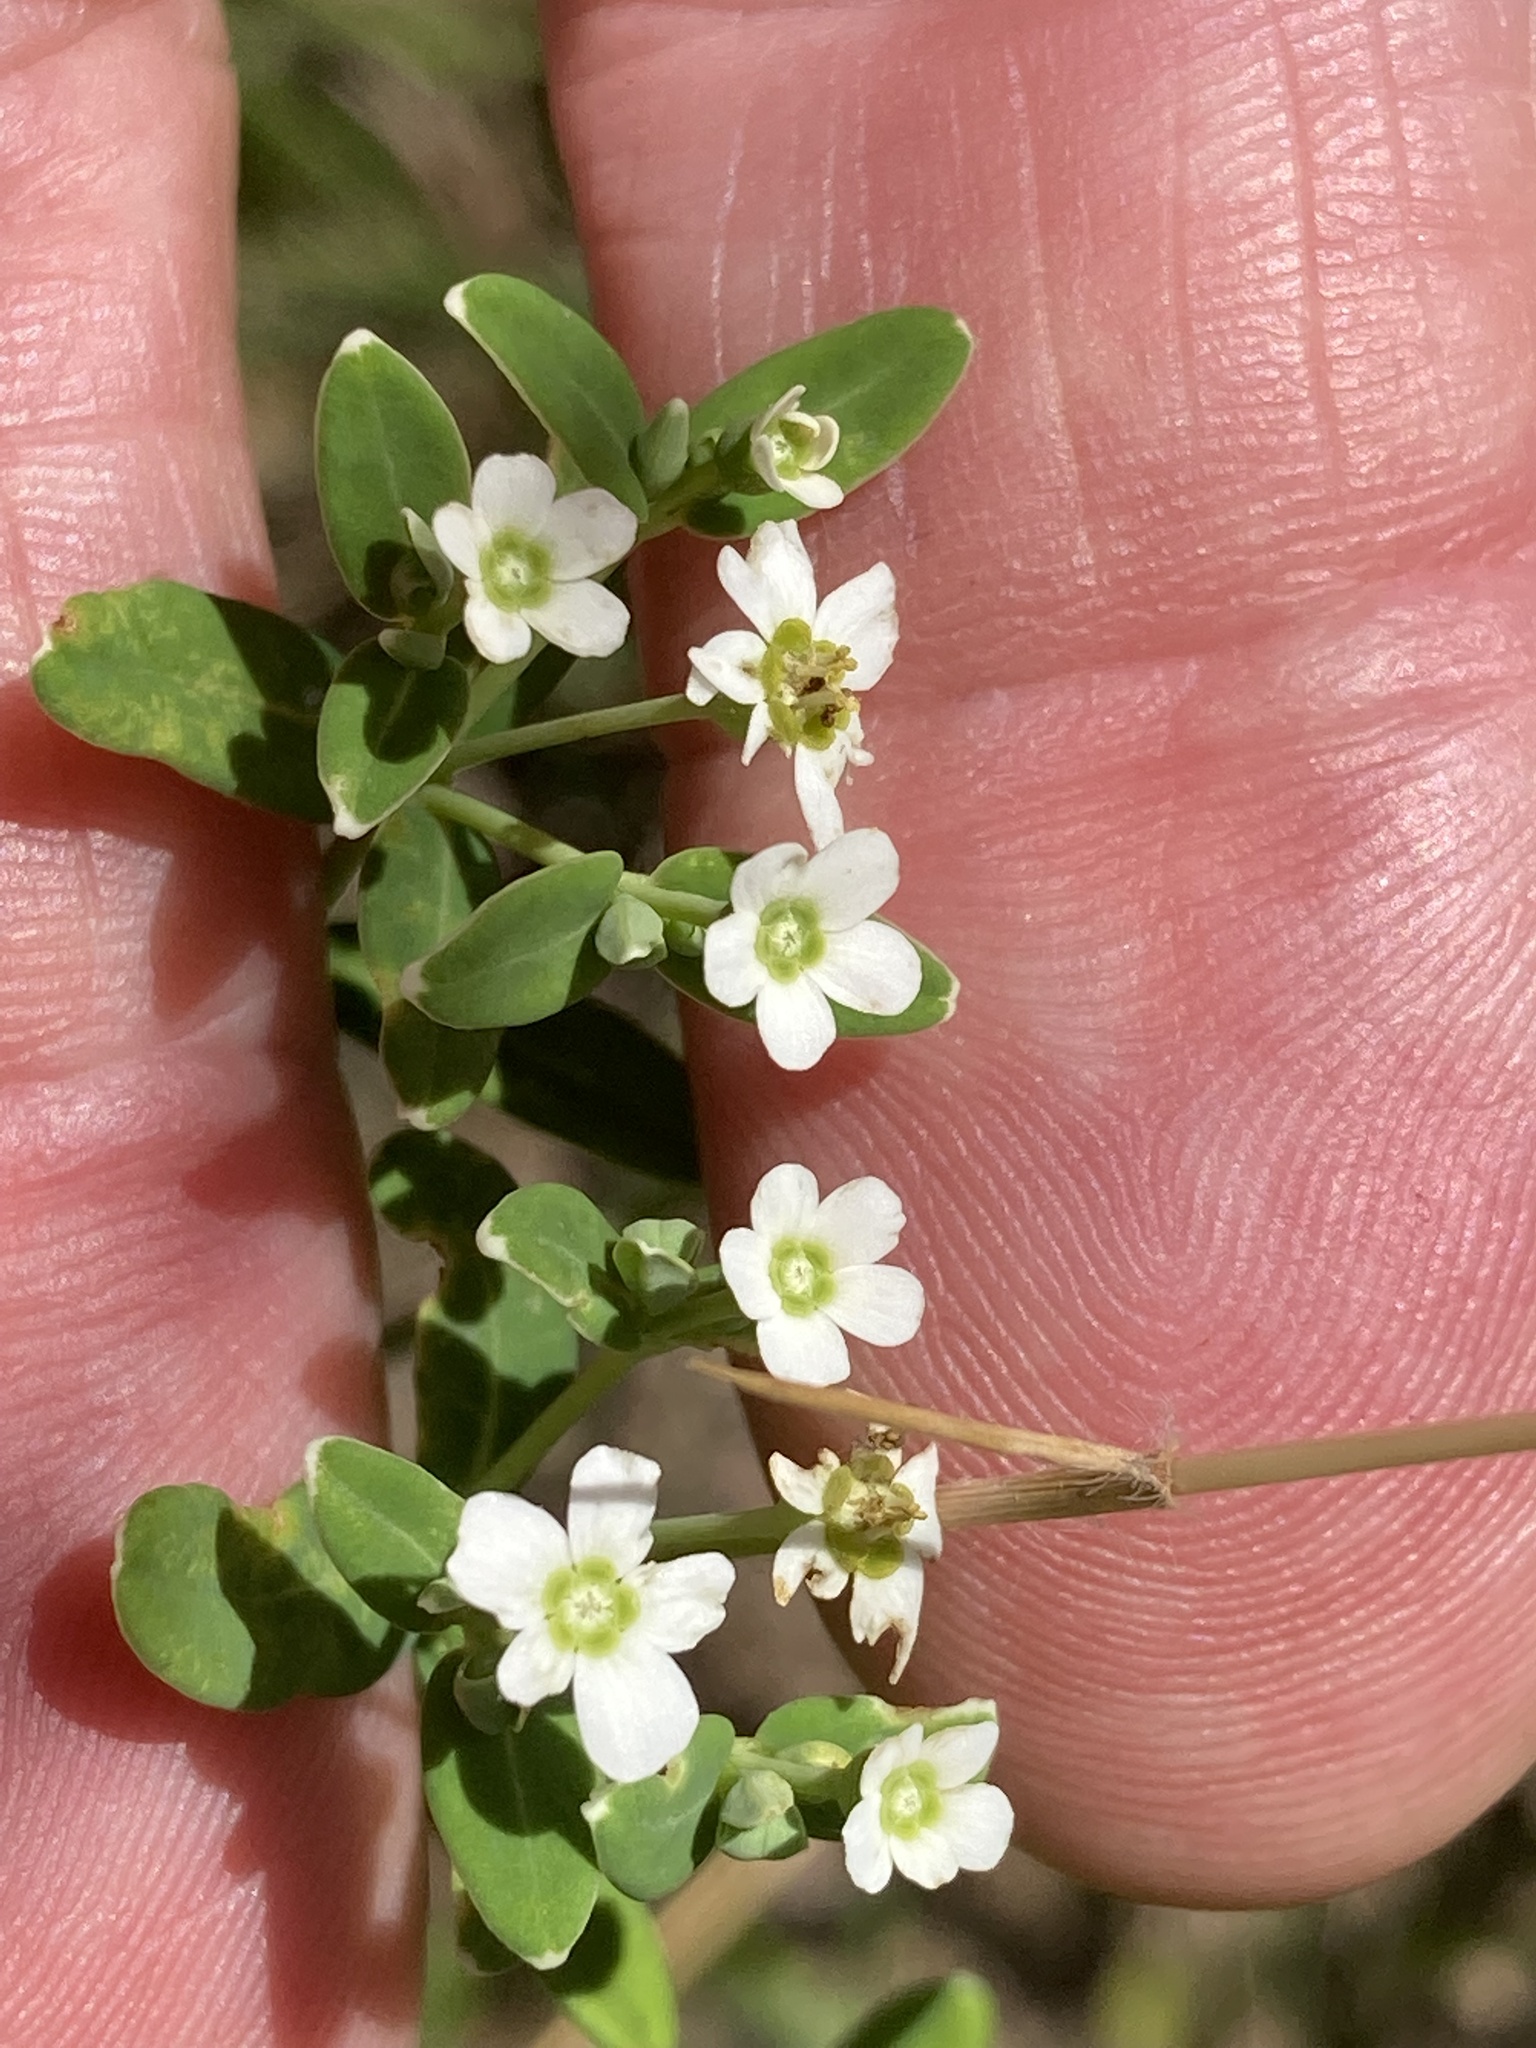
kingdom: Plantae
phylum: Tracheophyta
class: Magnoliopsida
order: Malpighiales
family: Euphorbiaceae
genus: Euphorbia
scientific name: Euphorbia corollata
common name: Flowering spurge
